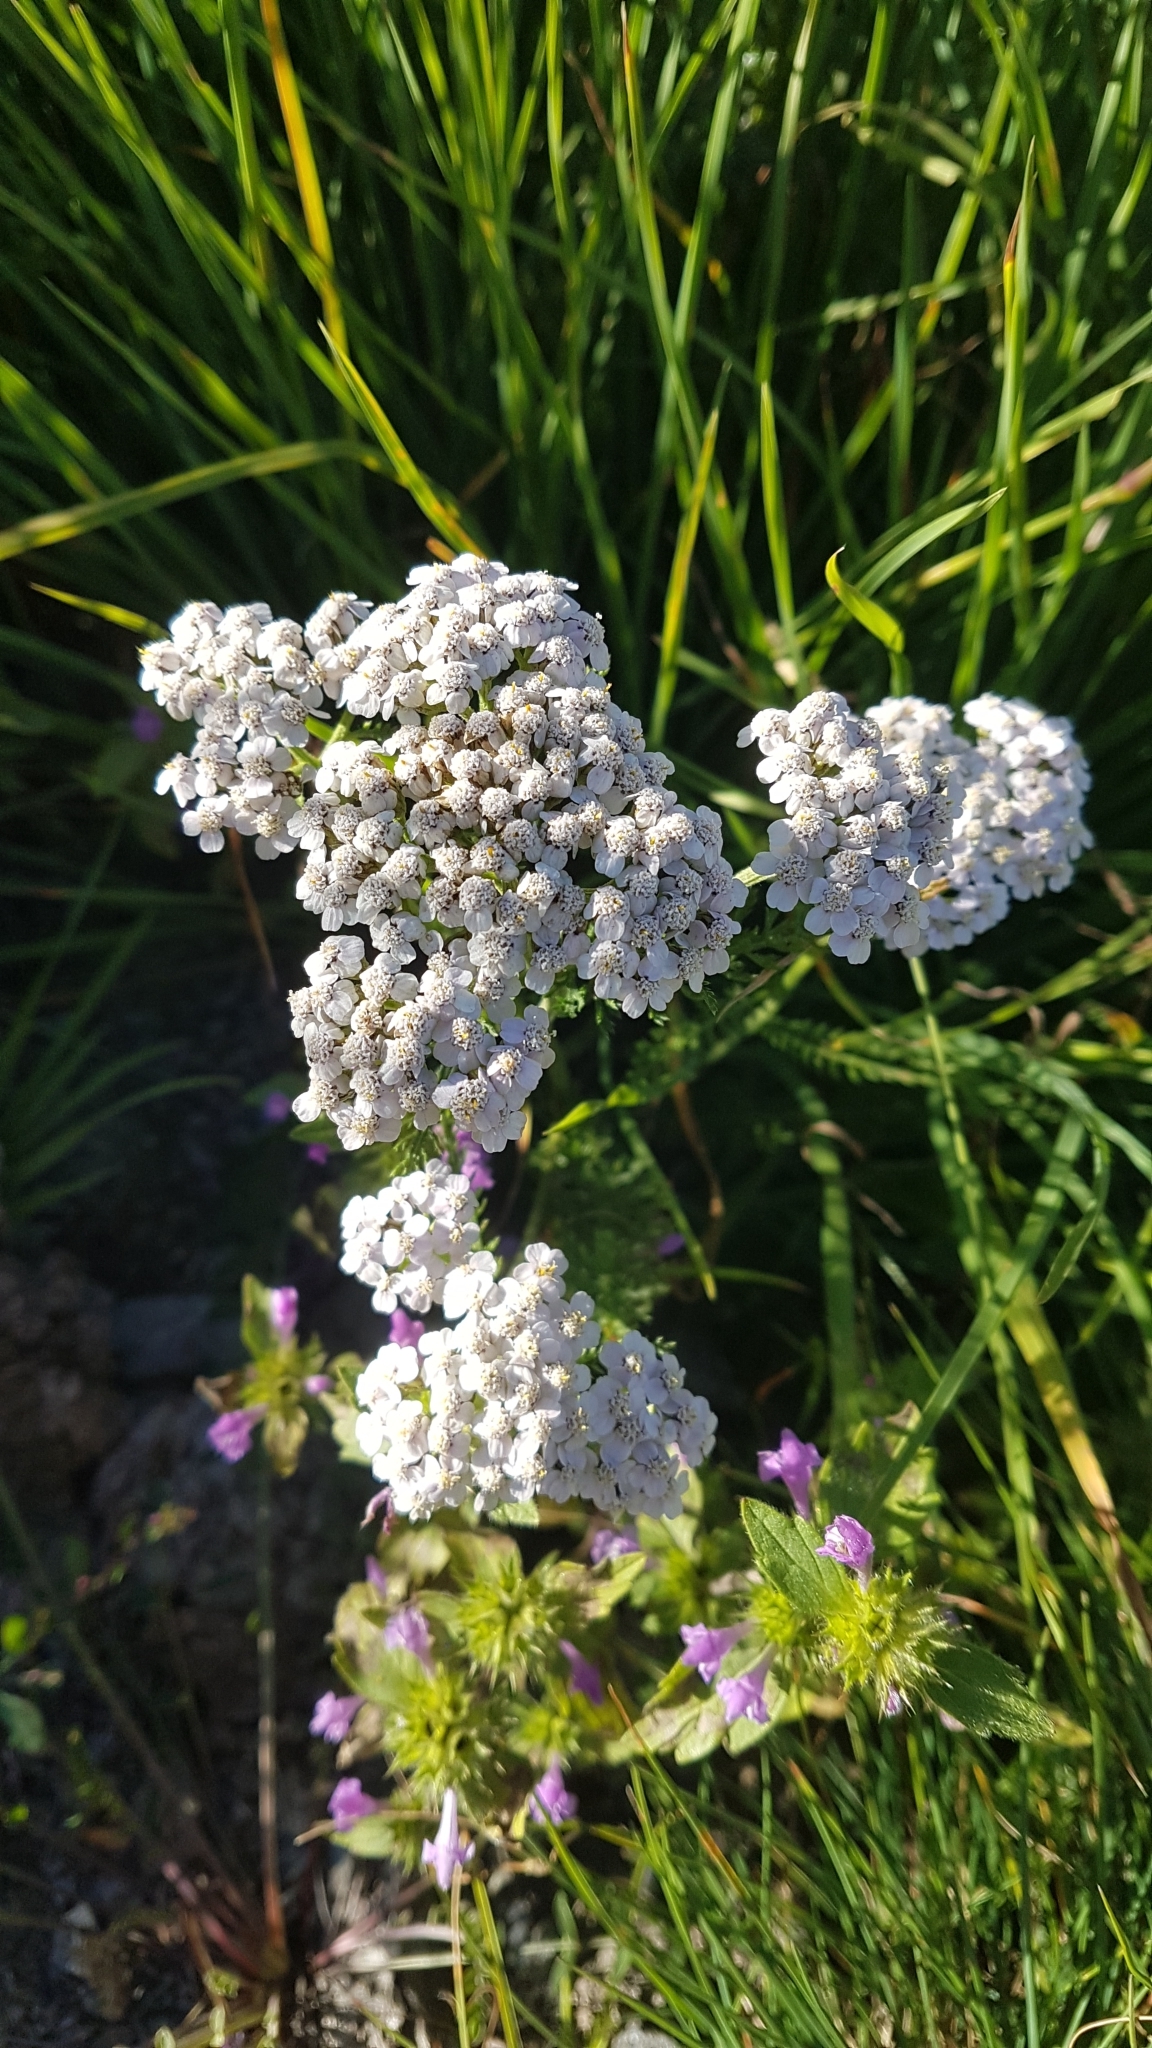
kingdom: Plantae
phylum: Tracheophyta
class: Magnoliopsida
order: Asterales
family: Asteraceae
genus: Achillea
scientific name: Achillea millefolium
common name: Yarrow
